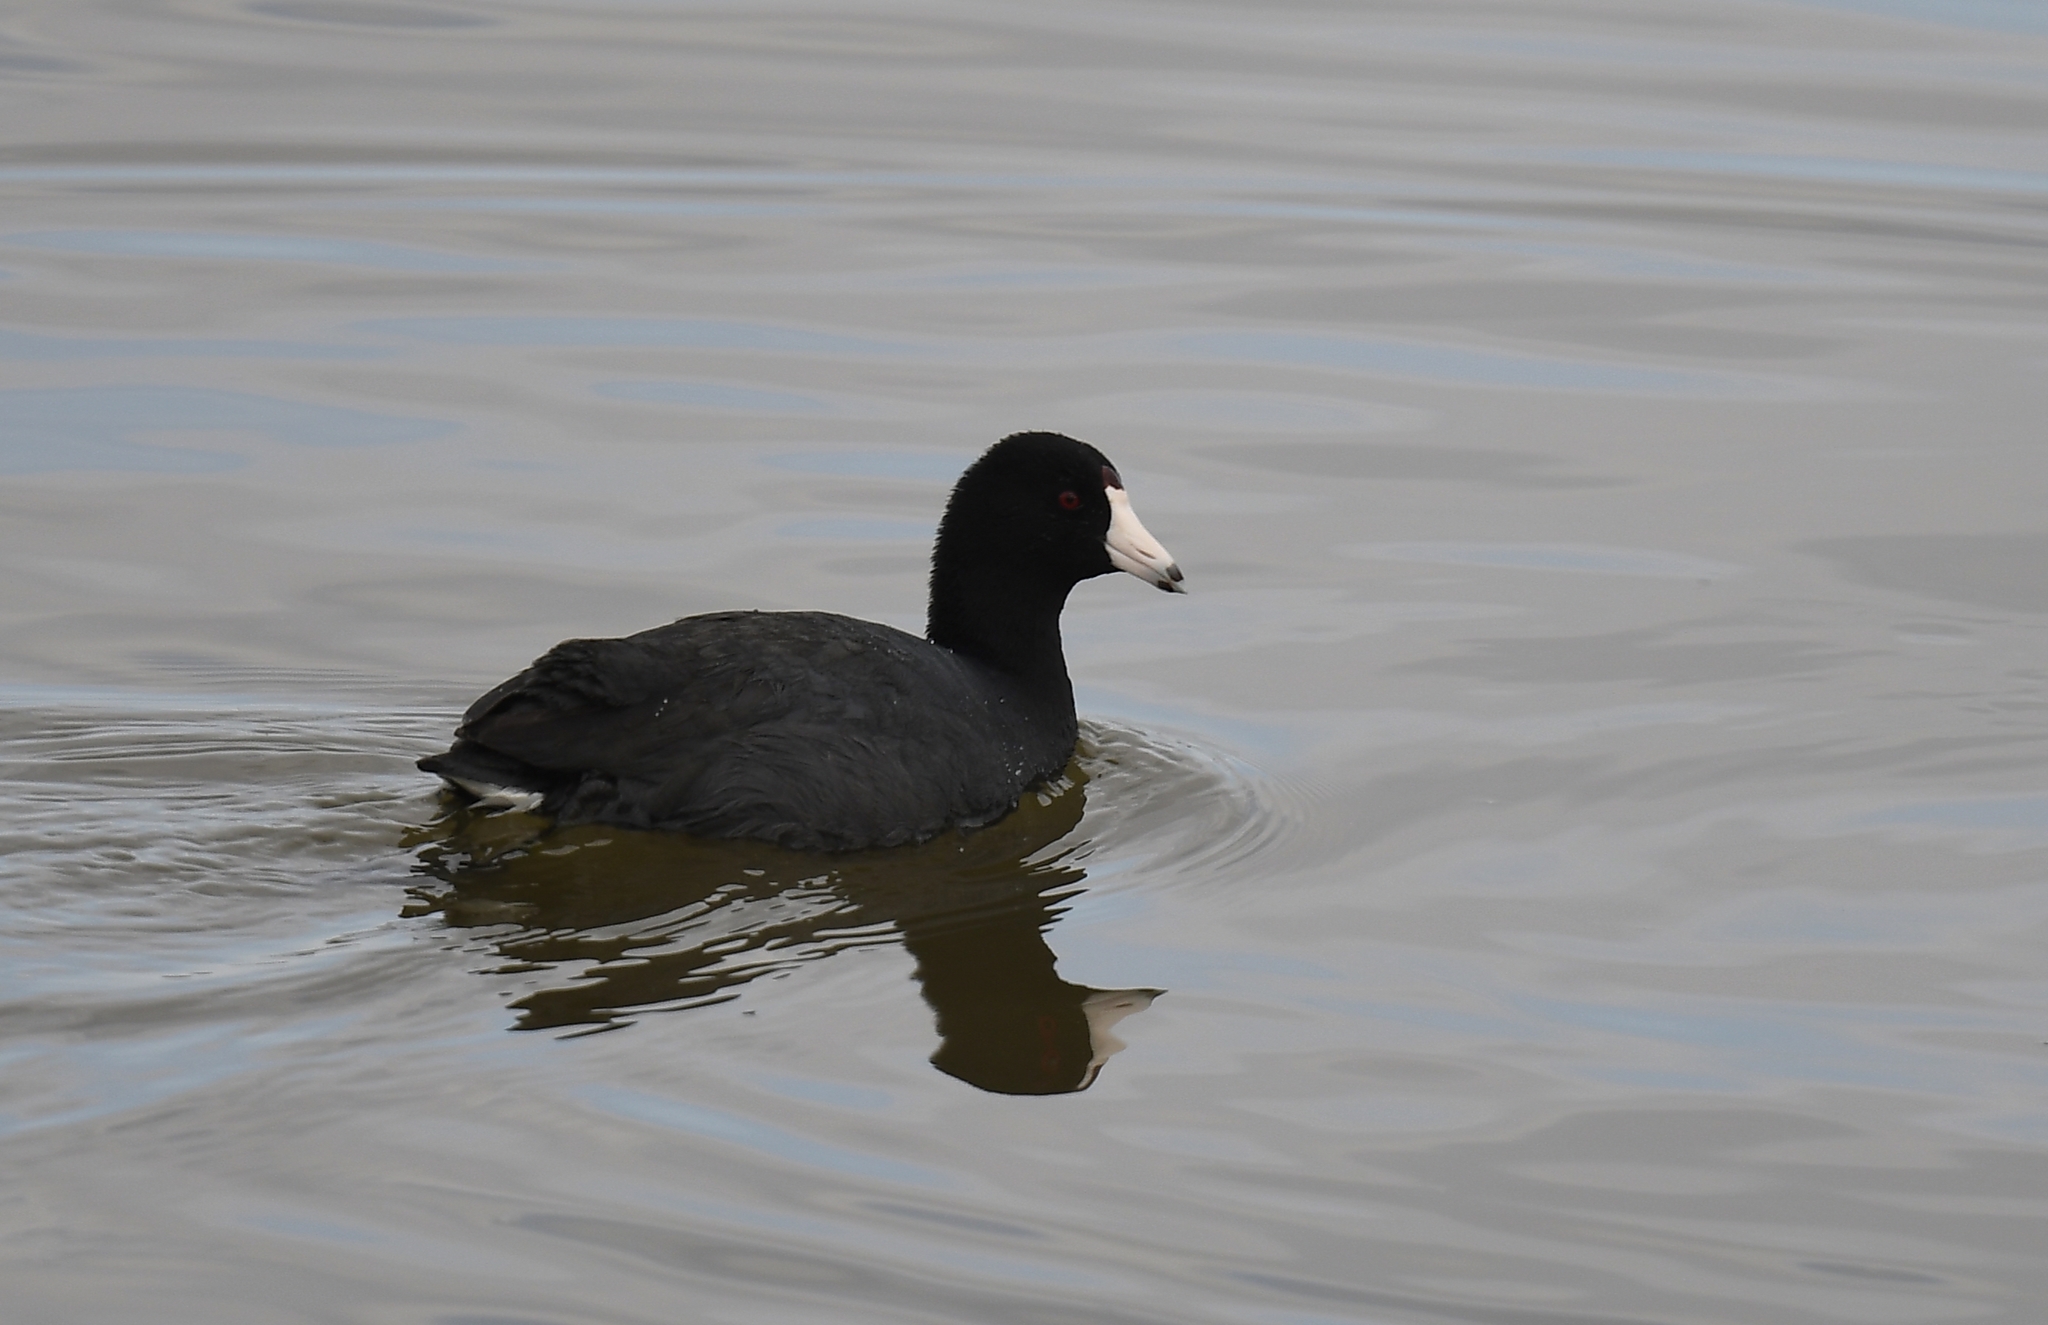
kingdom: Animalia
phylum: Chordata
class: Aves
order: Gruiformes
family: Rallidae
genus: Fulica
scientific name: Fulica americana
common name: American coot
